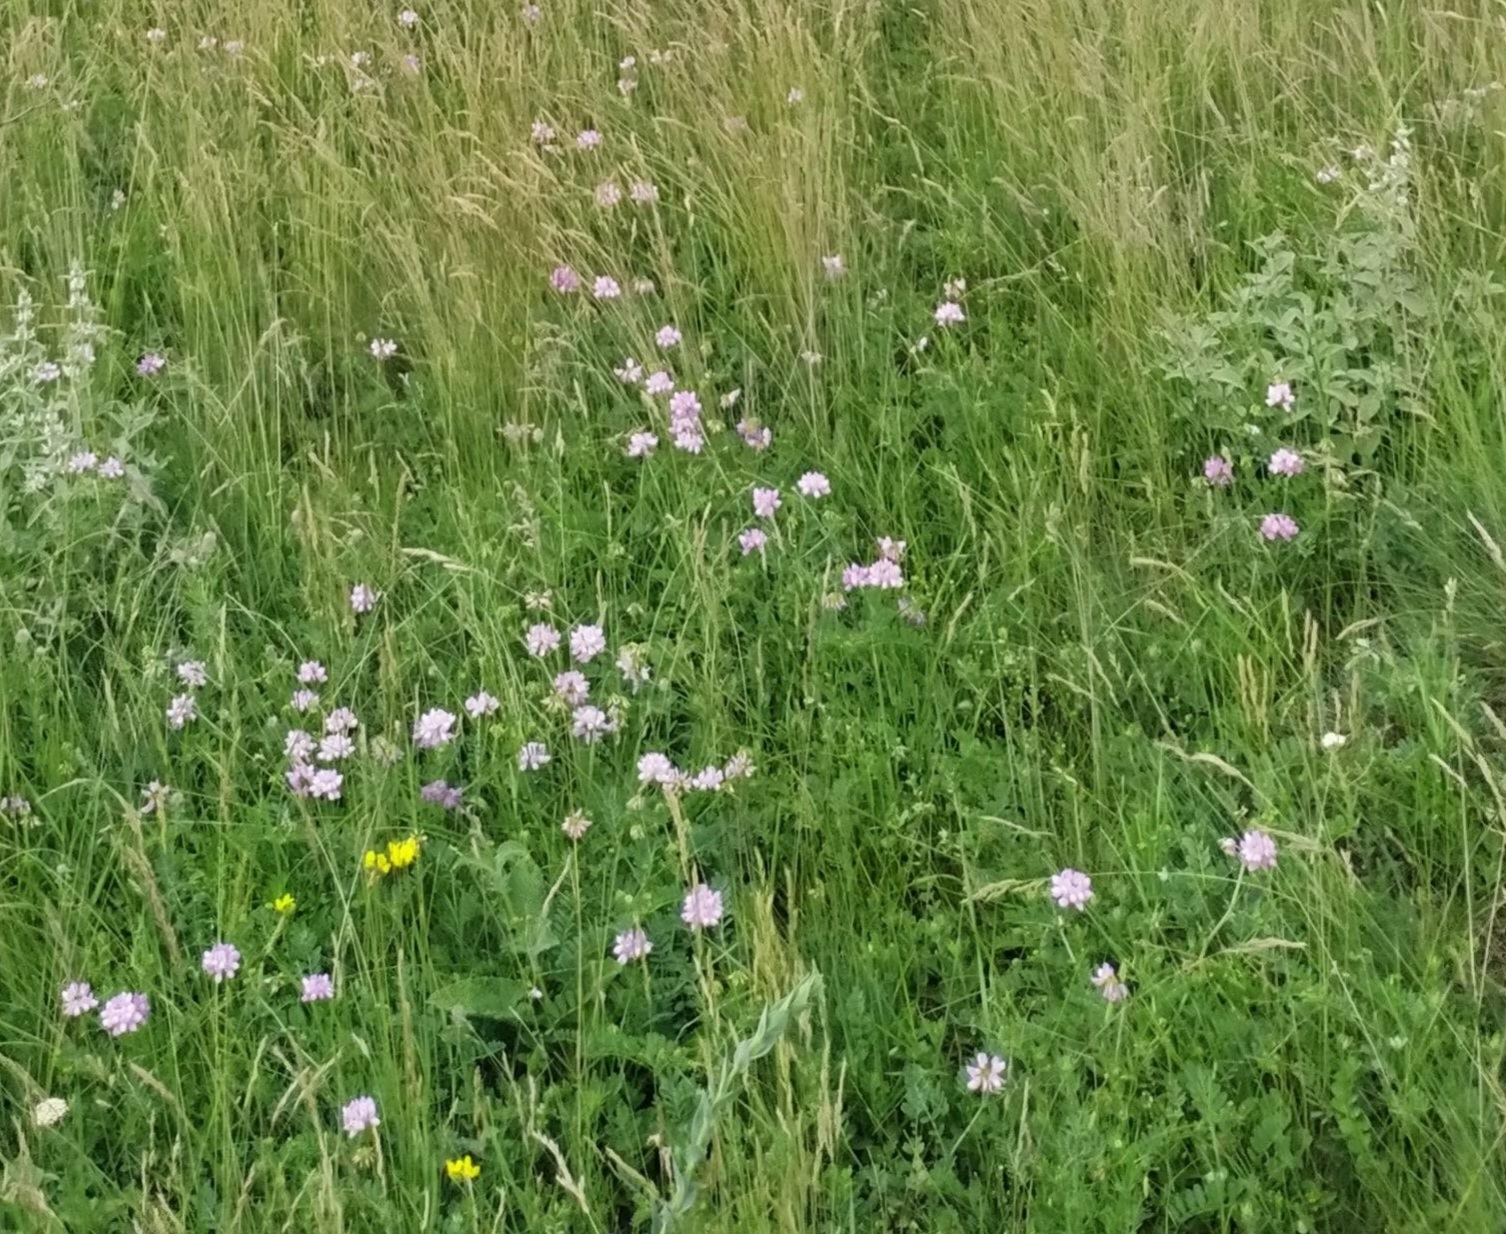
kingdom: Plantae
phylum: Tracheophyta
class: Magnoliopsida
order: Fabales
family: Fabaceae
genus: Coronilla
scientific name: Coronilla varia
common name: Crownvetch
